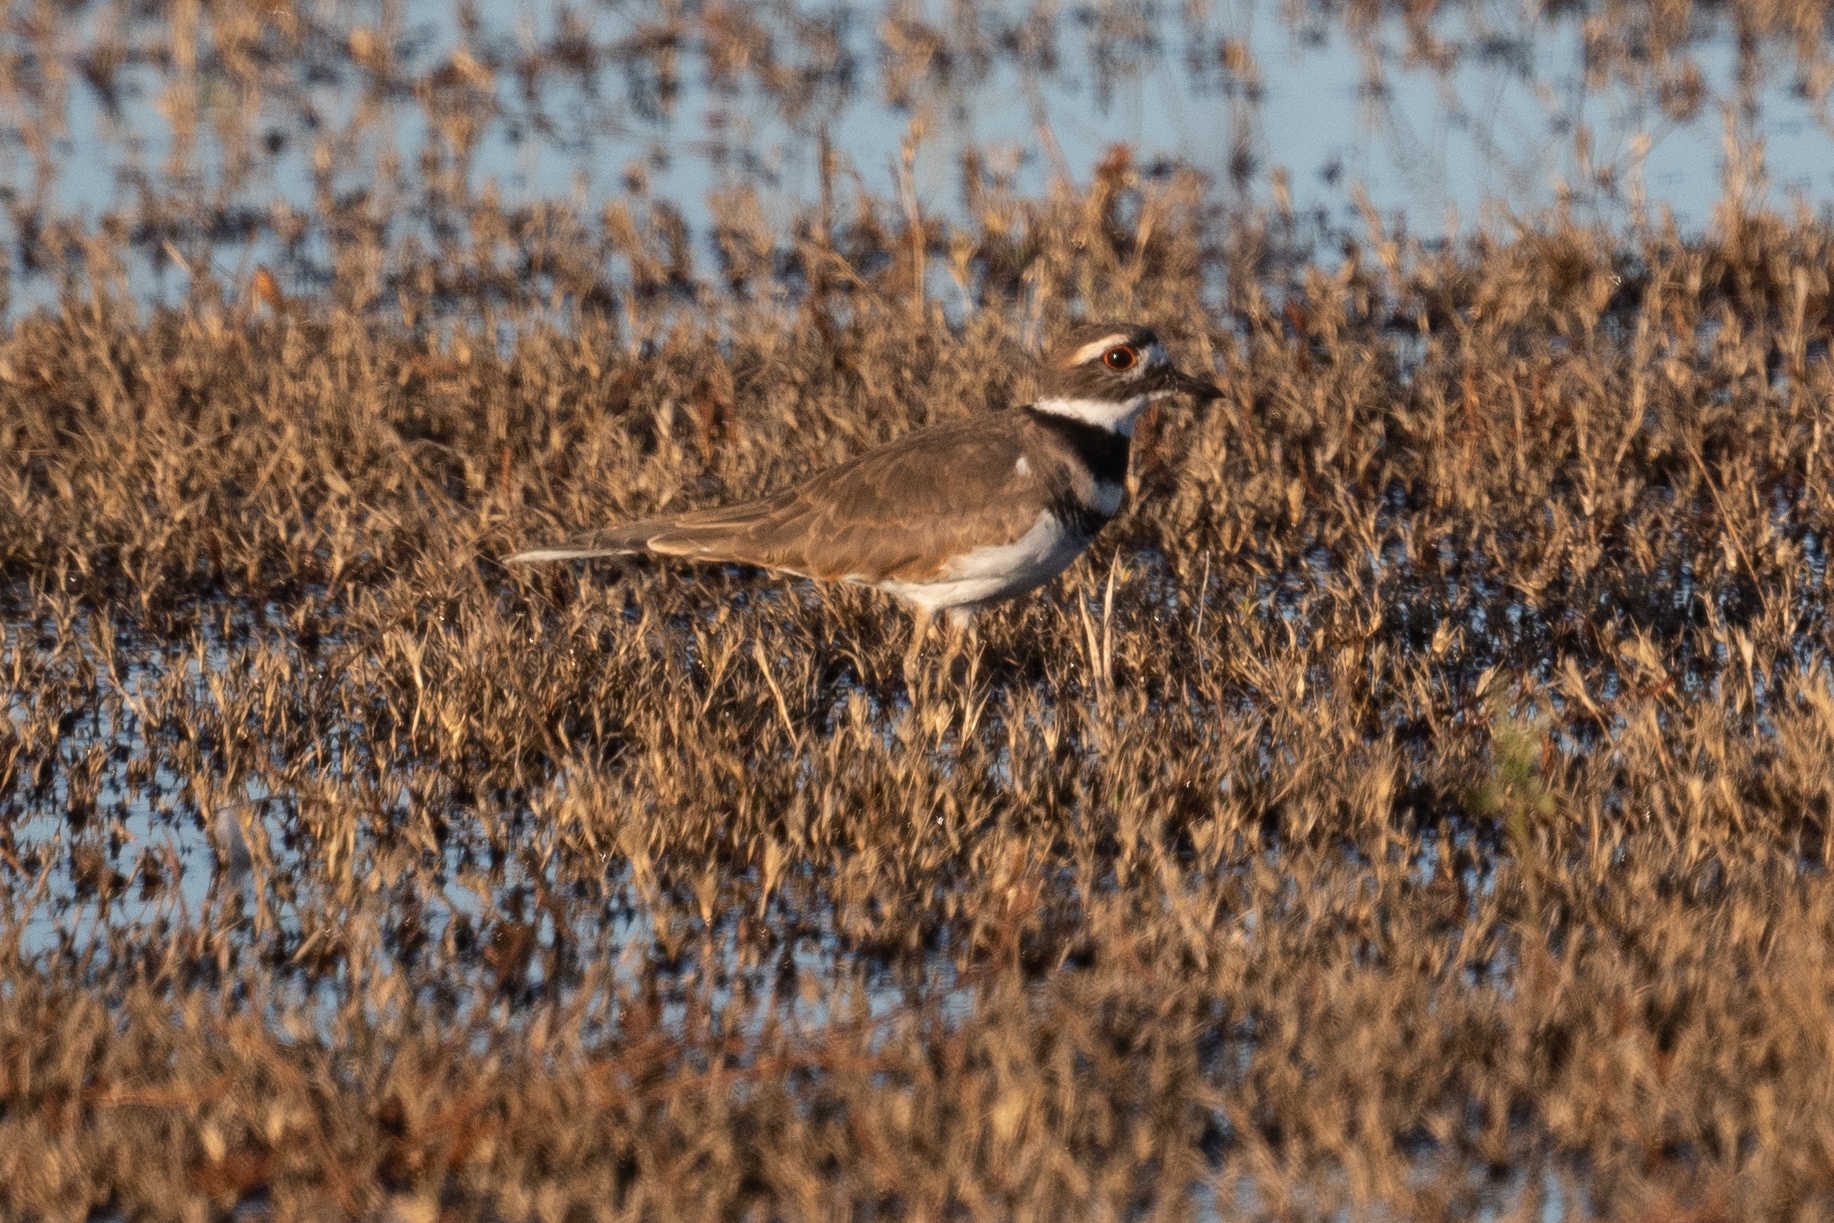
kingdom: Animalia
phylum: Chordata
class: Aves
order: Charadriiformes
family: Charadriidae
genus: Charadrius
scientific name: Charadrius vociferus
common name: Killdeer
